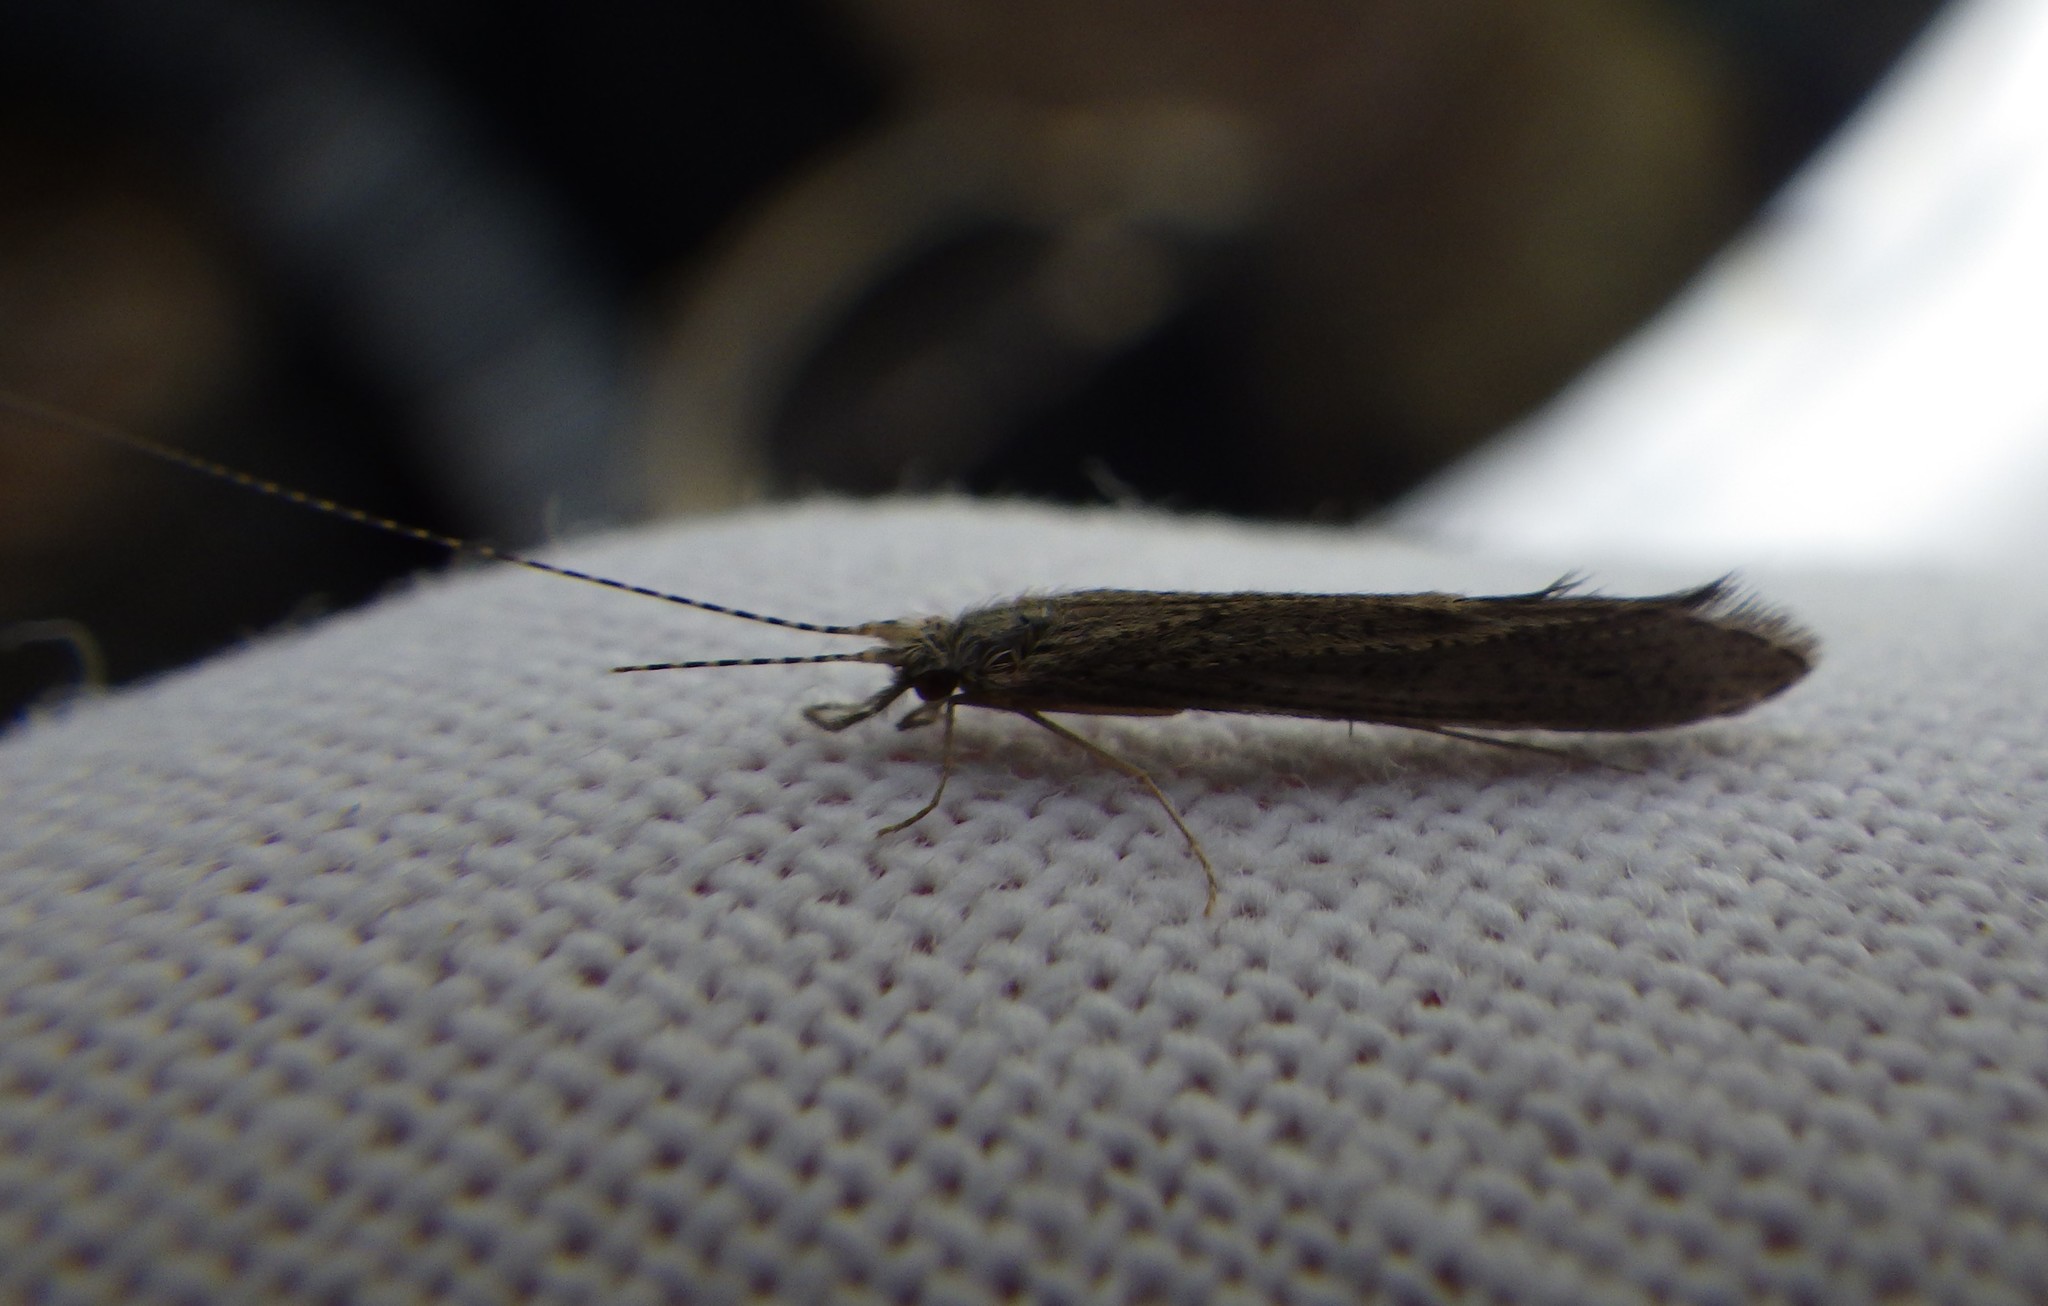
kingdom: Animalia
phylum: Arthropoda
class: Insecta
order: Trichoptera
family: Leptoceridae
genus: Leptocerus
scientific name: Leptocerus tineiformis
